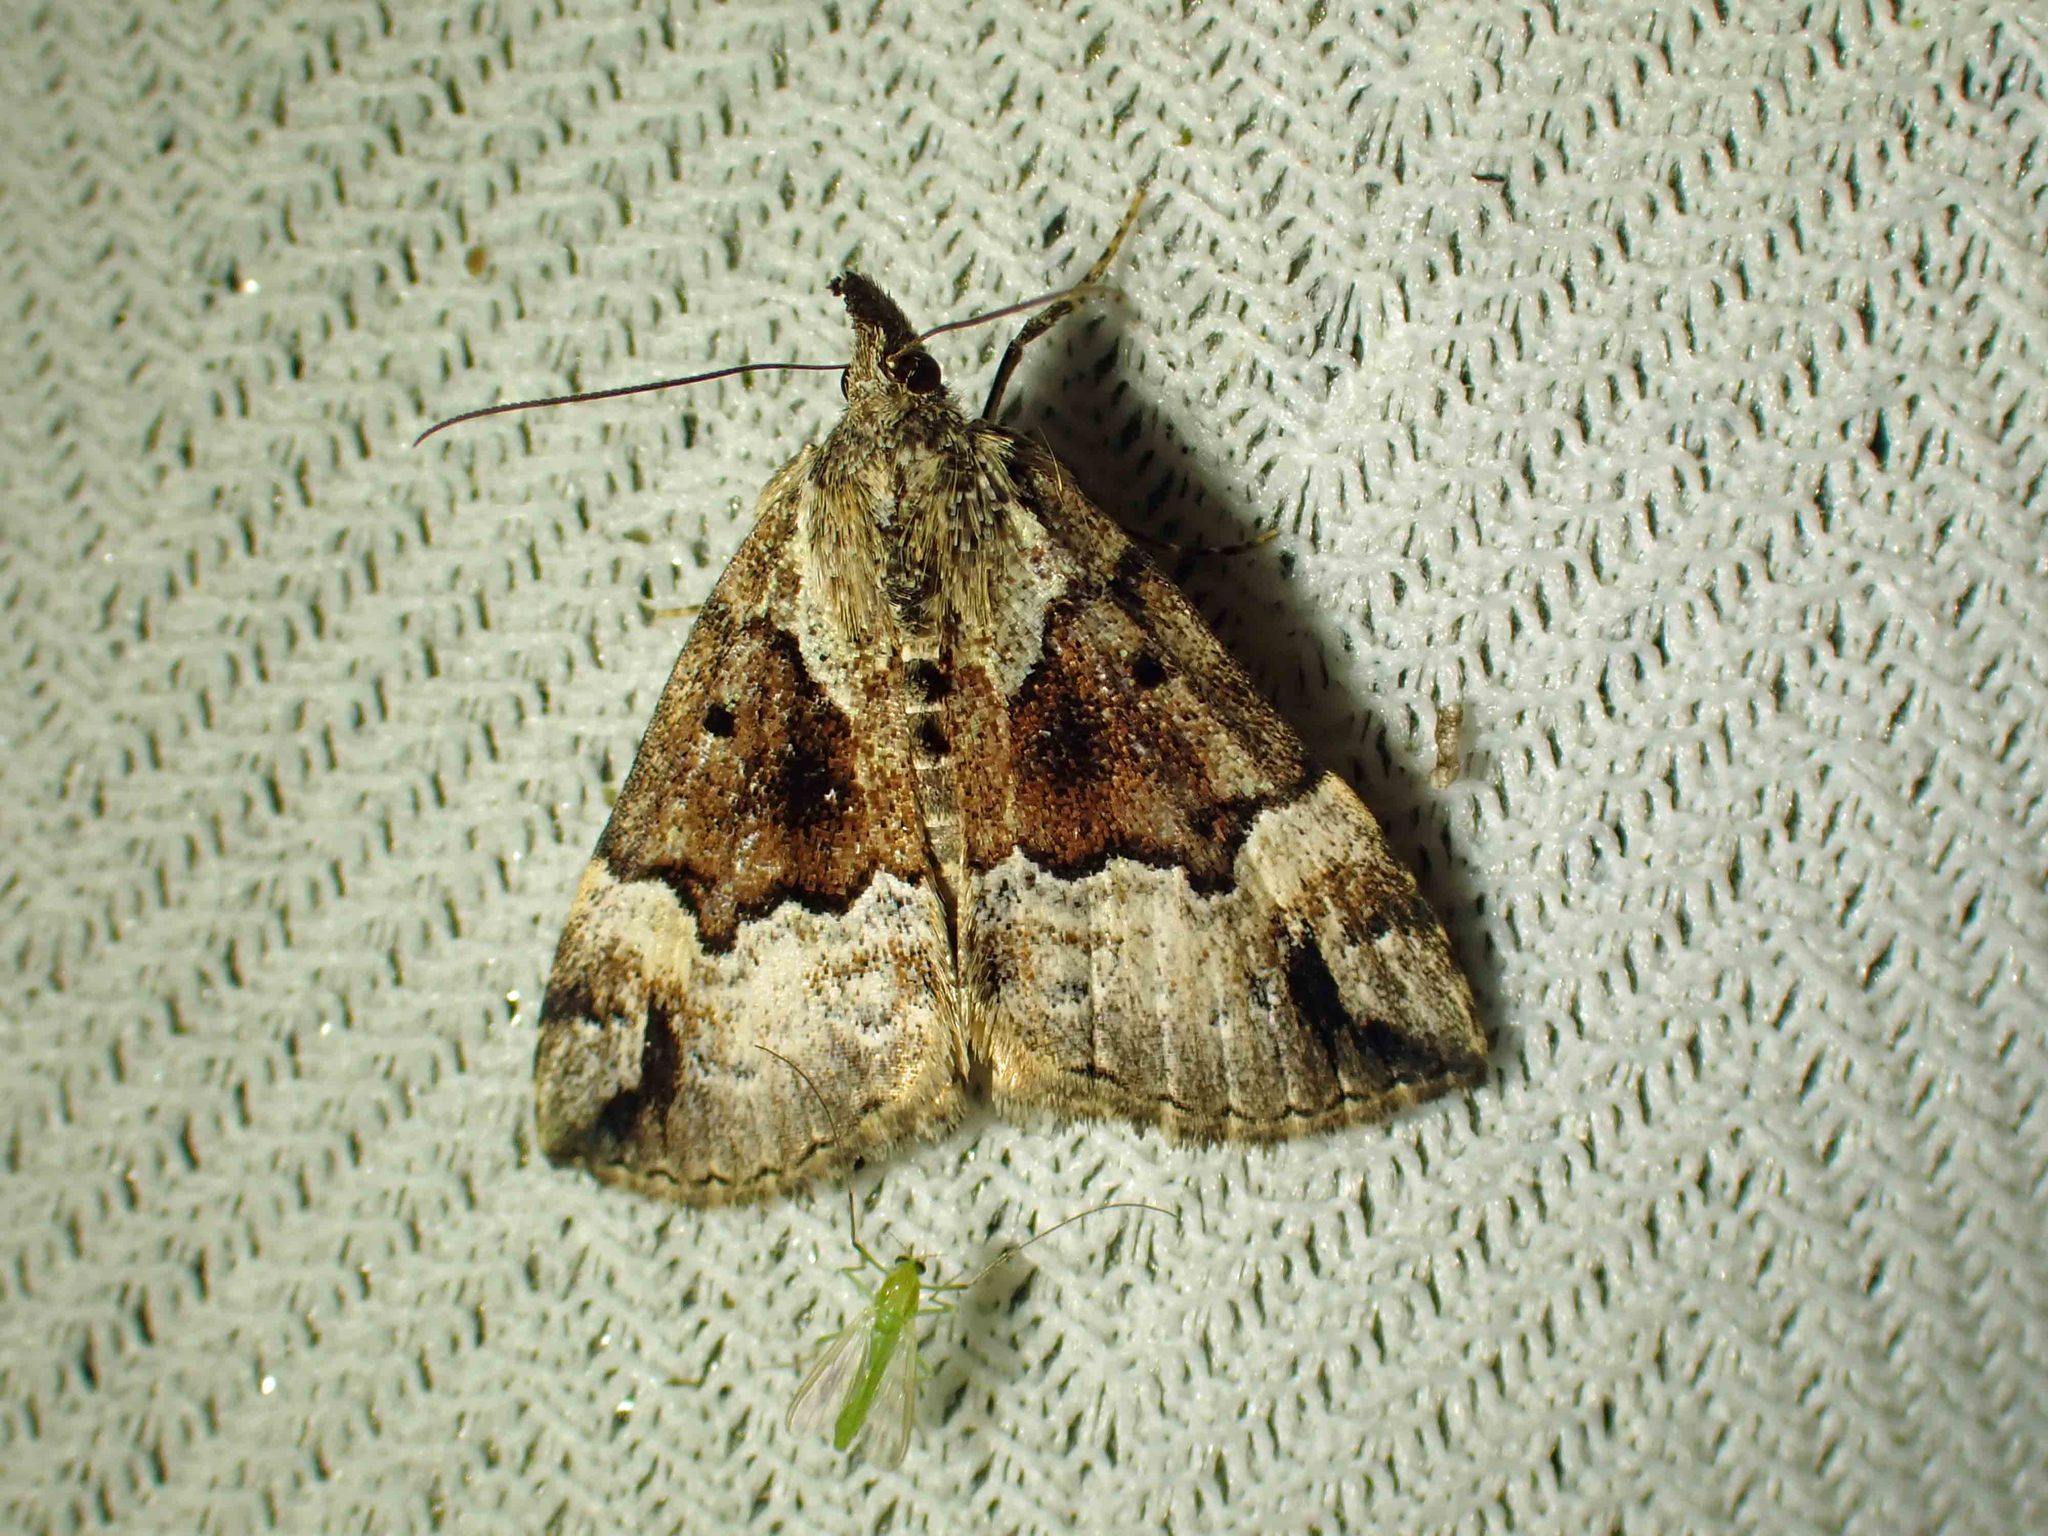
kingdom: Animalia
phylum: Arthropoda
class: Insecta
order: Lepidoptera
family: Erebidae
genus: Hypena
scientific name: Hypena palparia
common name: Mottled bomolocha moth
